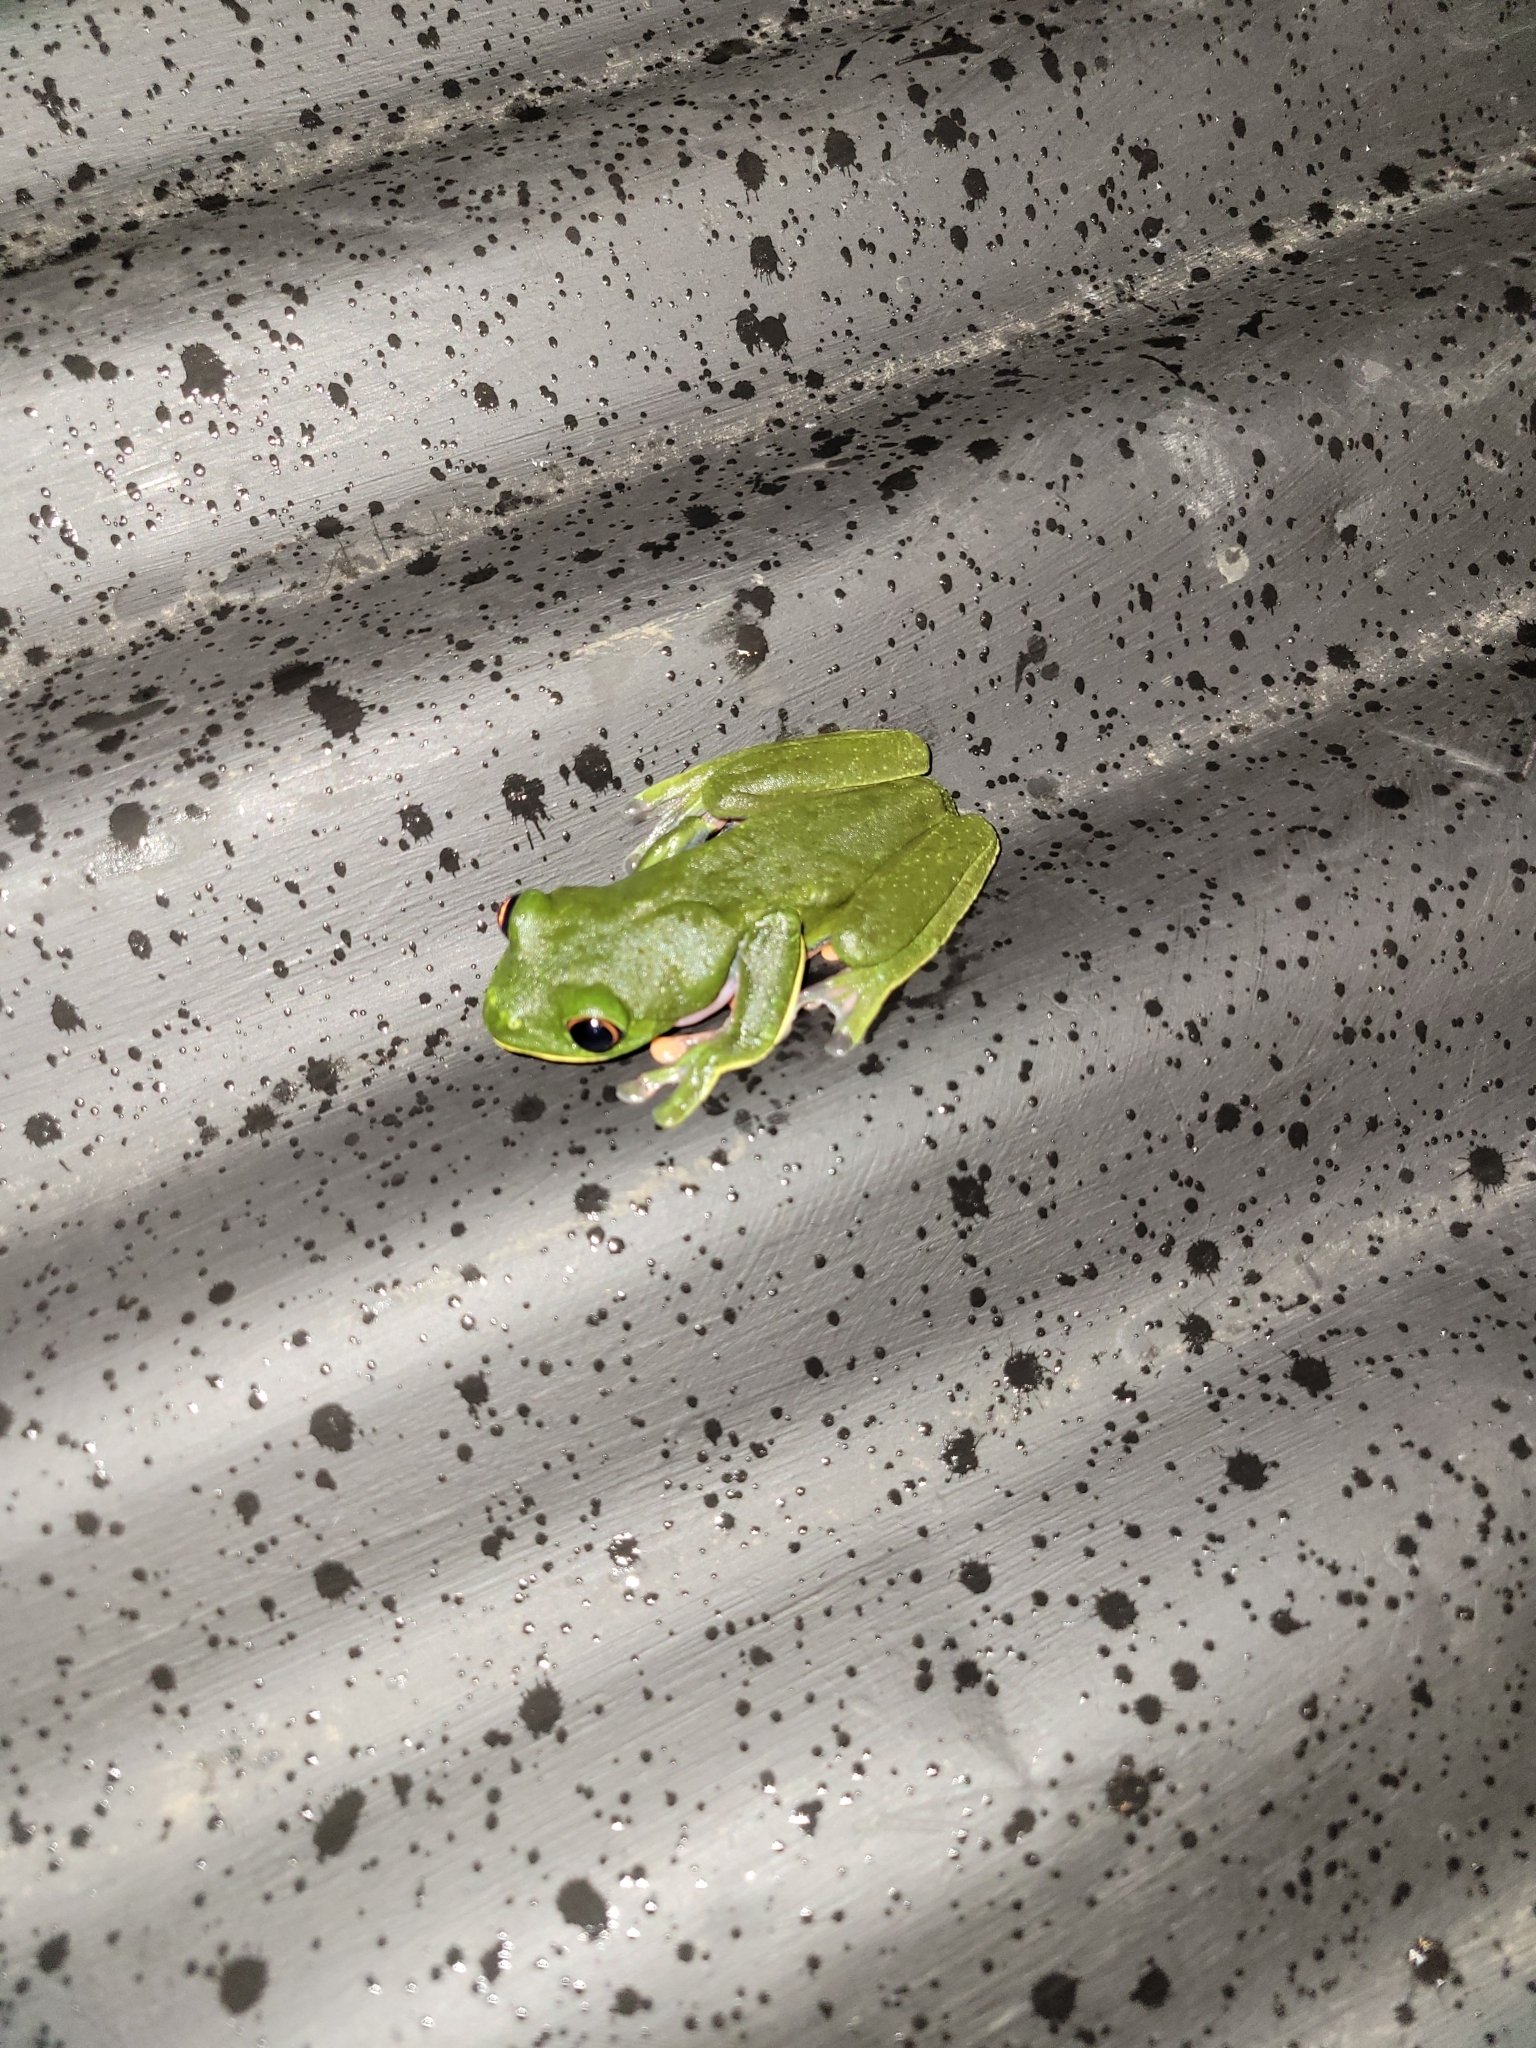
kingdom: Animalia
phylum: Chordata
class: Amphibia
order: Anura
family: Phyllomedusidae
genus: Agalychnis
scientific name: Agalychnis annae
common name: Blue-sided treefrog
